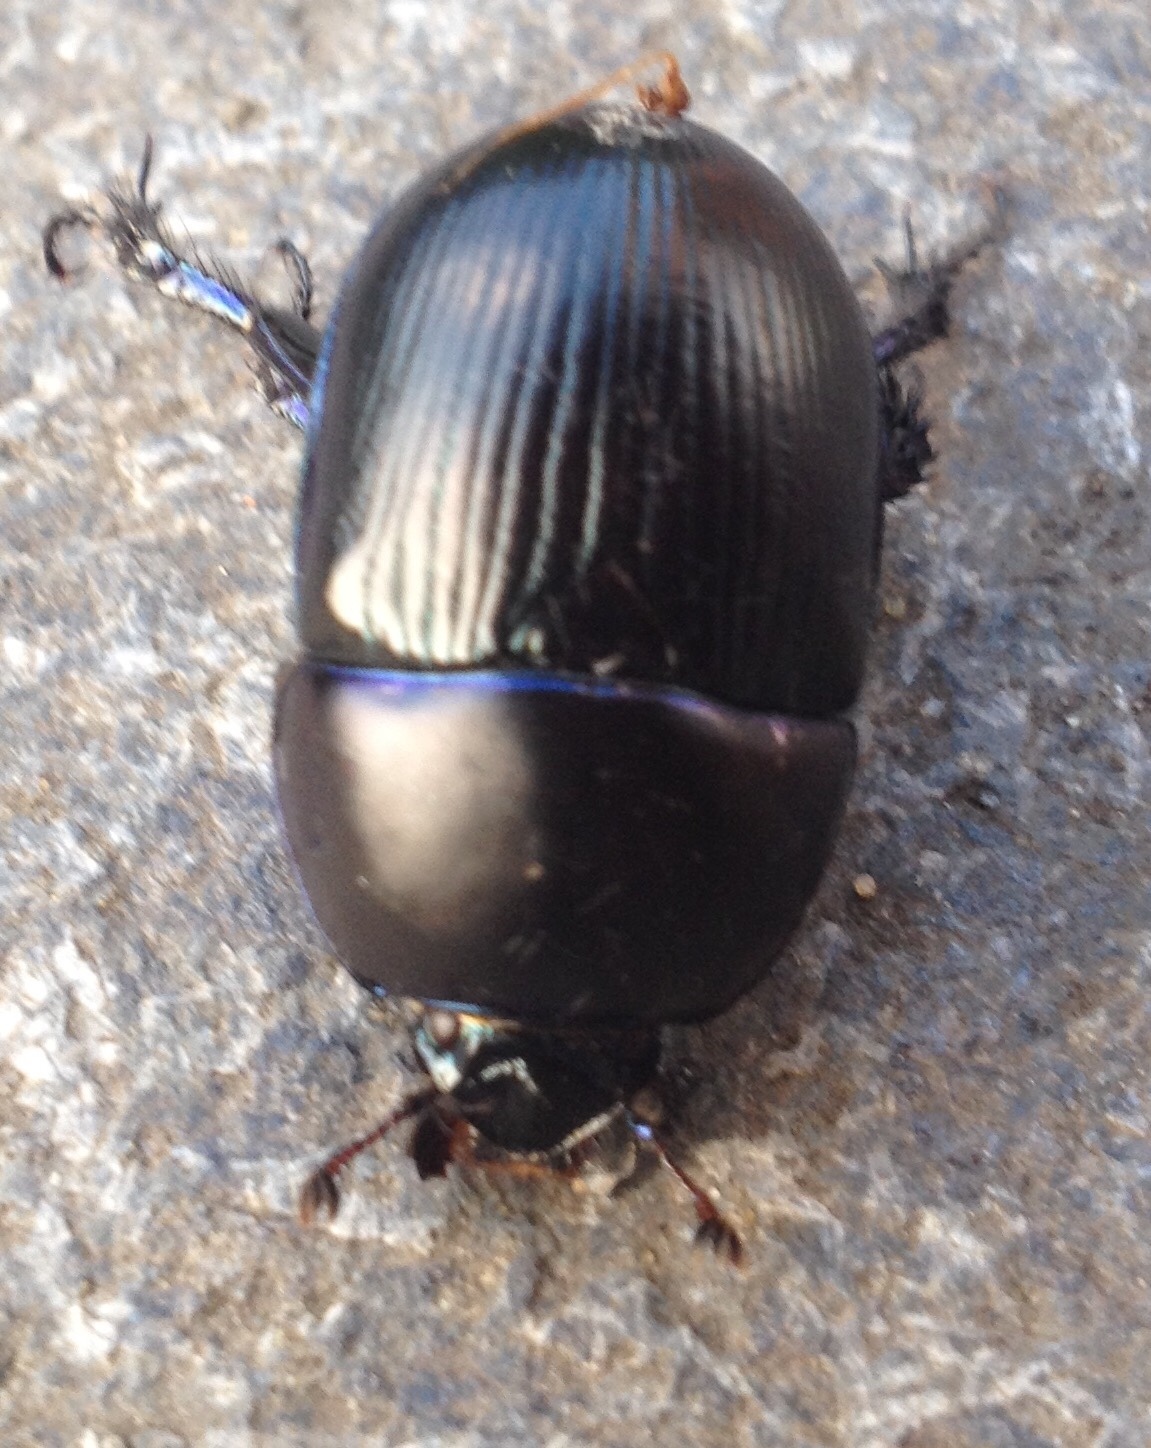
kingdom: Animalia
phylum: Arthropoda
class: Insecta
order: Coleoptera
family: Geotrupidae
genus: Geotrupes
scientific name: Geotrupes spiniger
